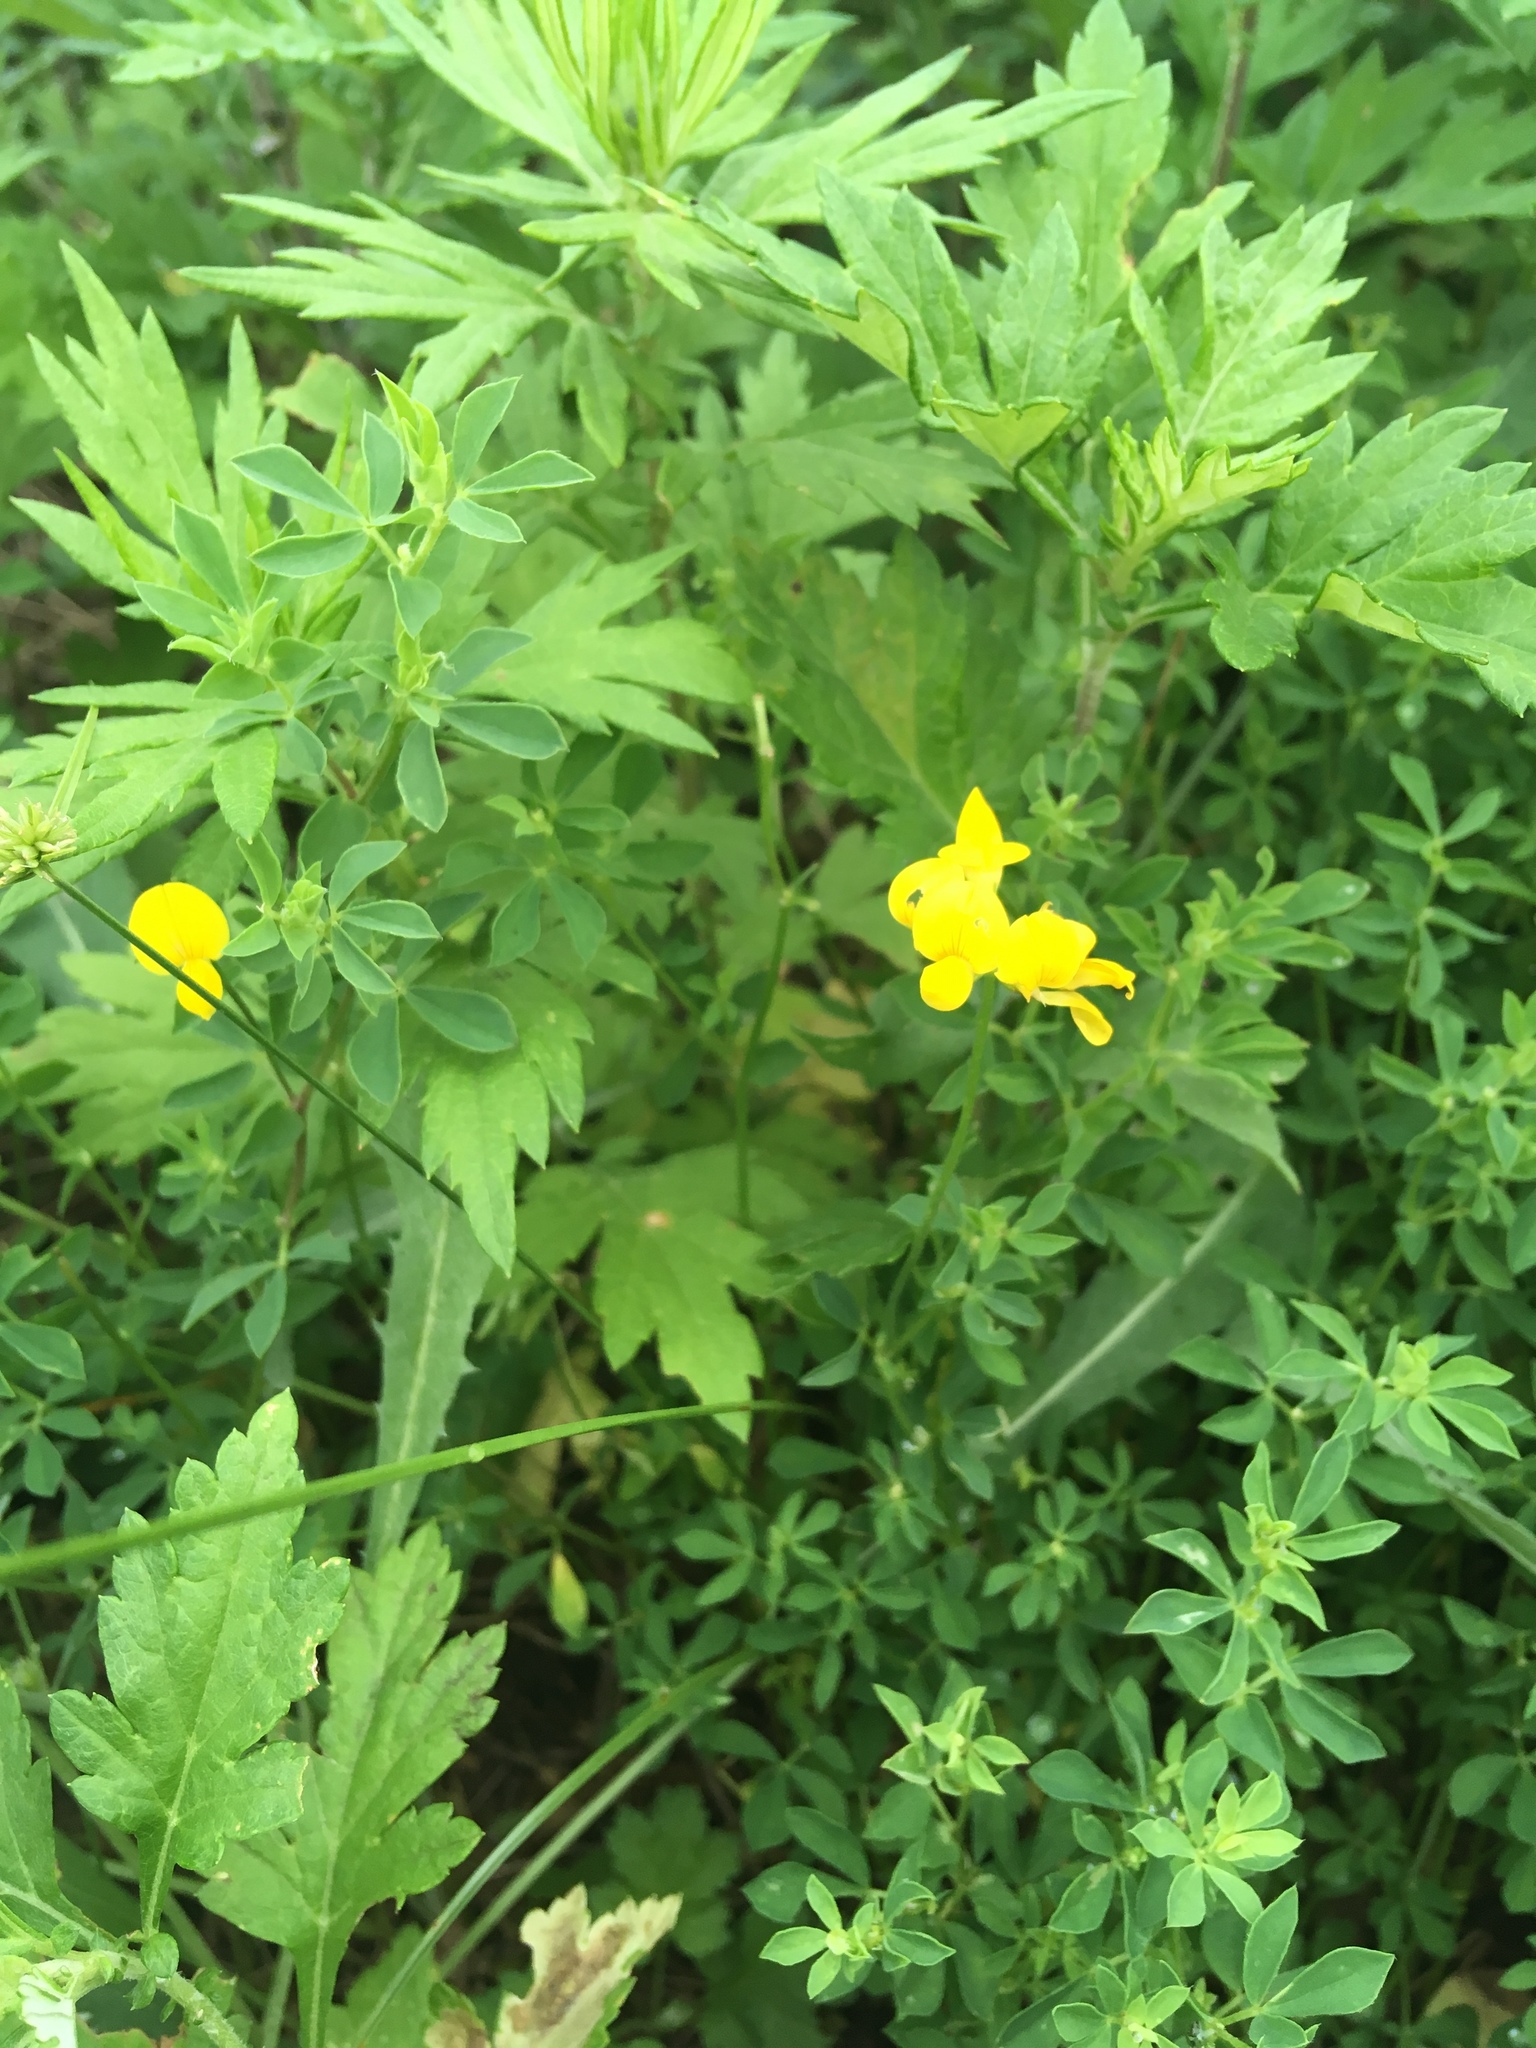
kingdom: Plantae
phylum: Tracheophyta
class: Magnoliopsida
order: Fabales
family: Fabaceae
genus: Lotus
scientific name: Lotus corniculatus
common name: Common bird's-foot-trefoil
